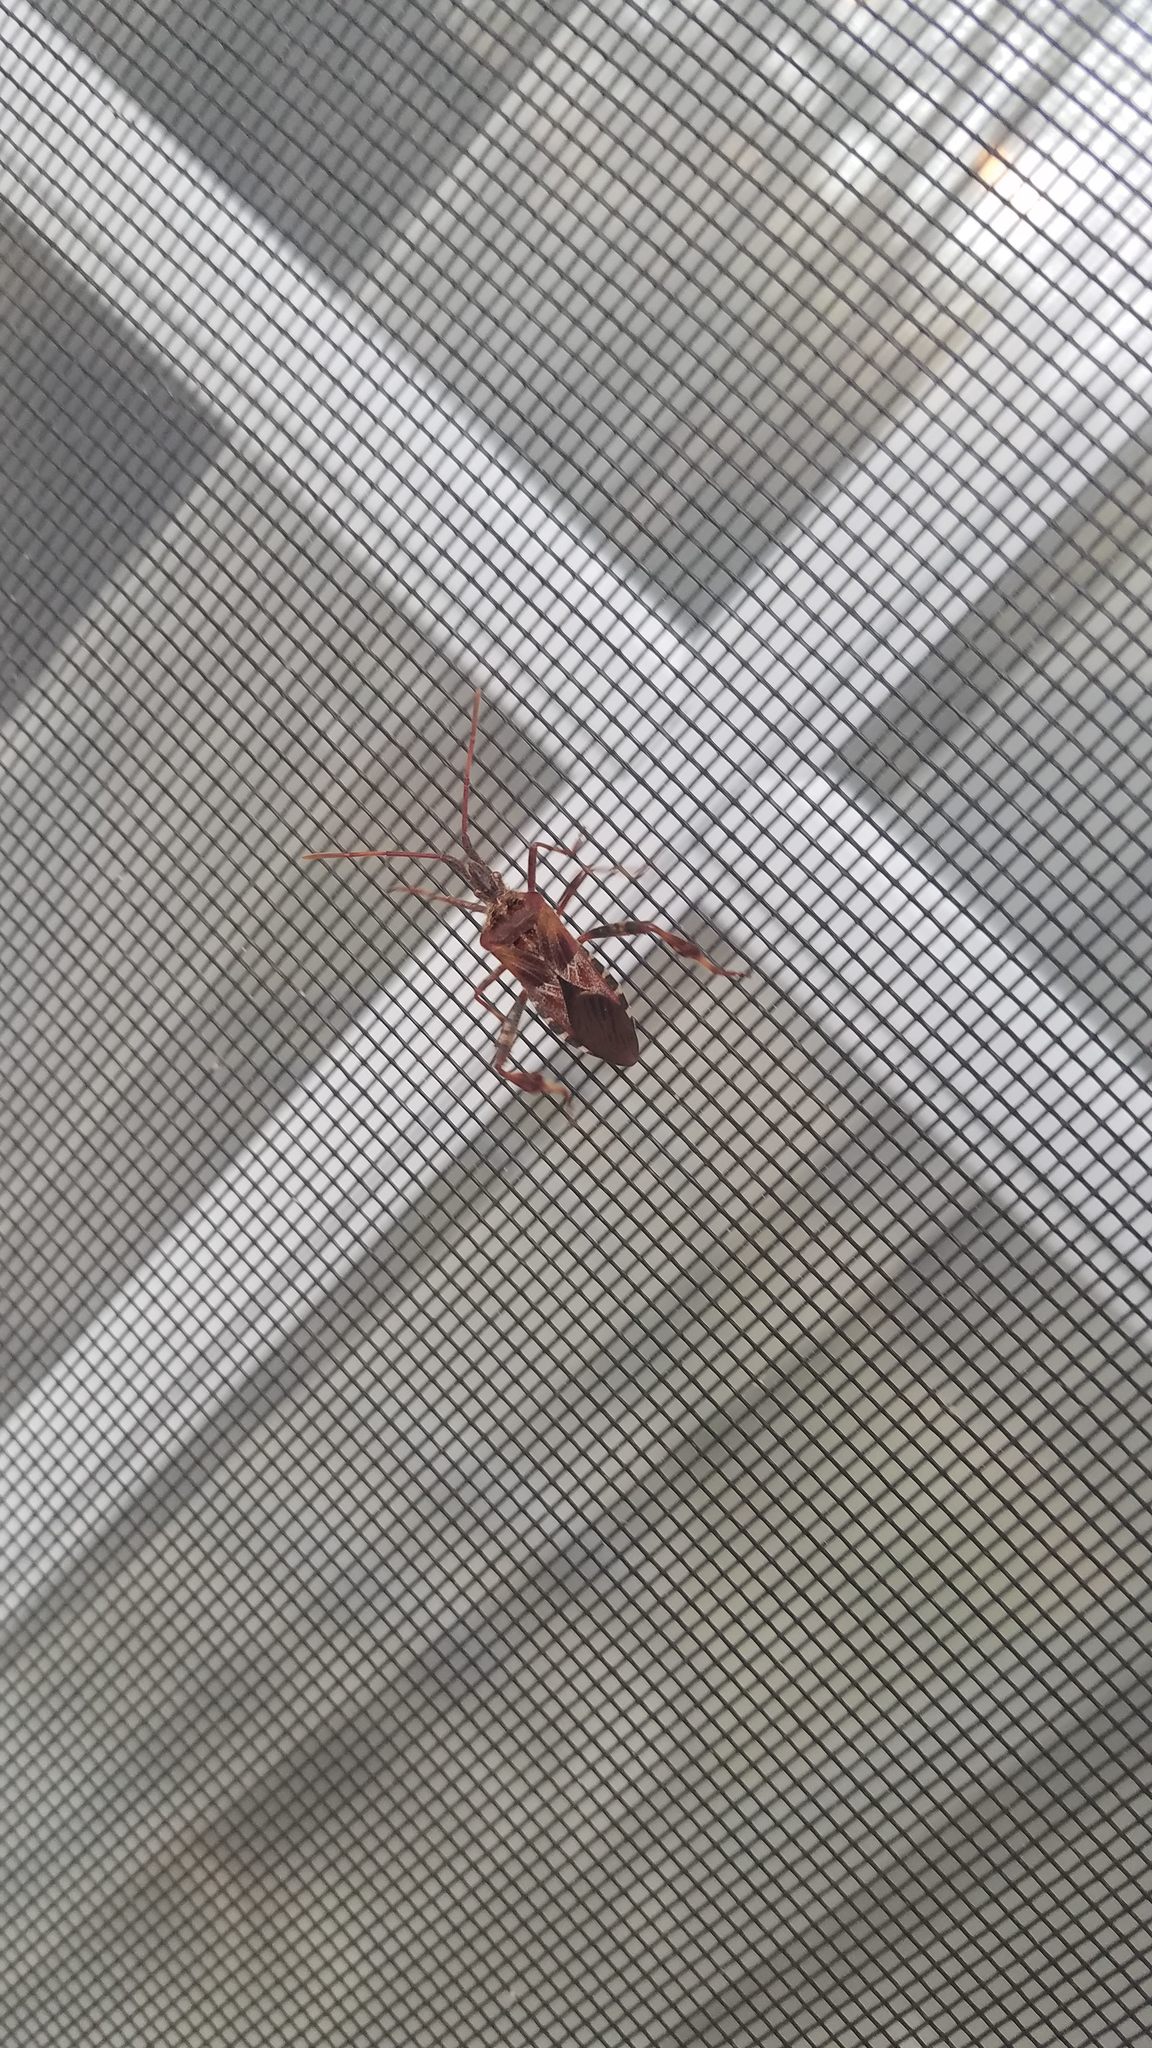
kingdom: Animalia
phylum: Arthropoda
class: Insecta
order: Hemiptera
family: Coreidae
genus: Leptoglossus
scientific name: Leptoglossus occidentalis
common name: Western conifer-seed bug
